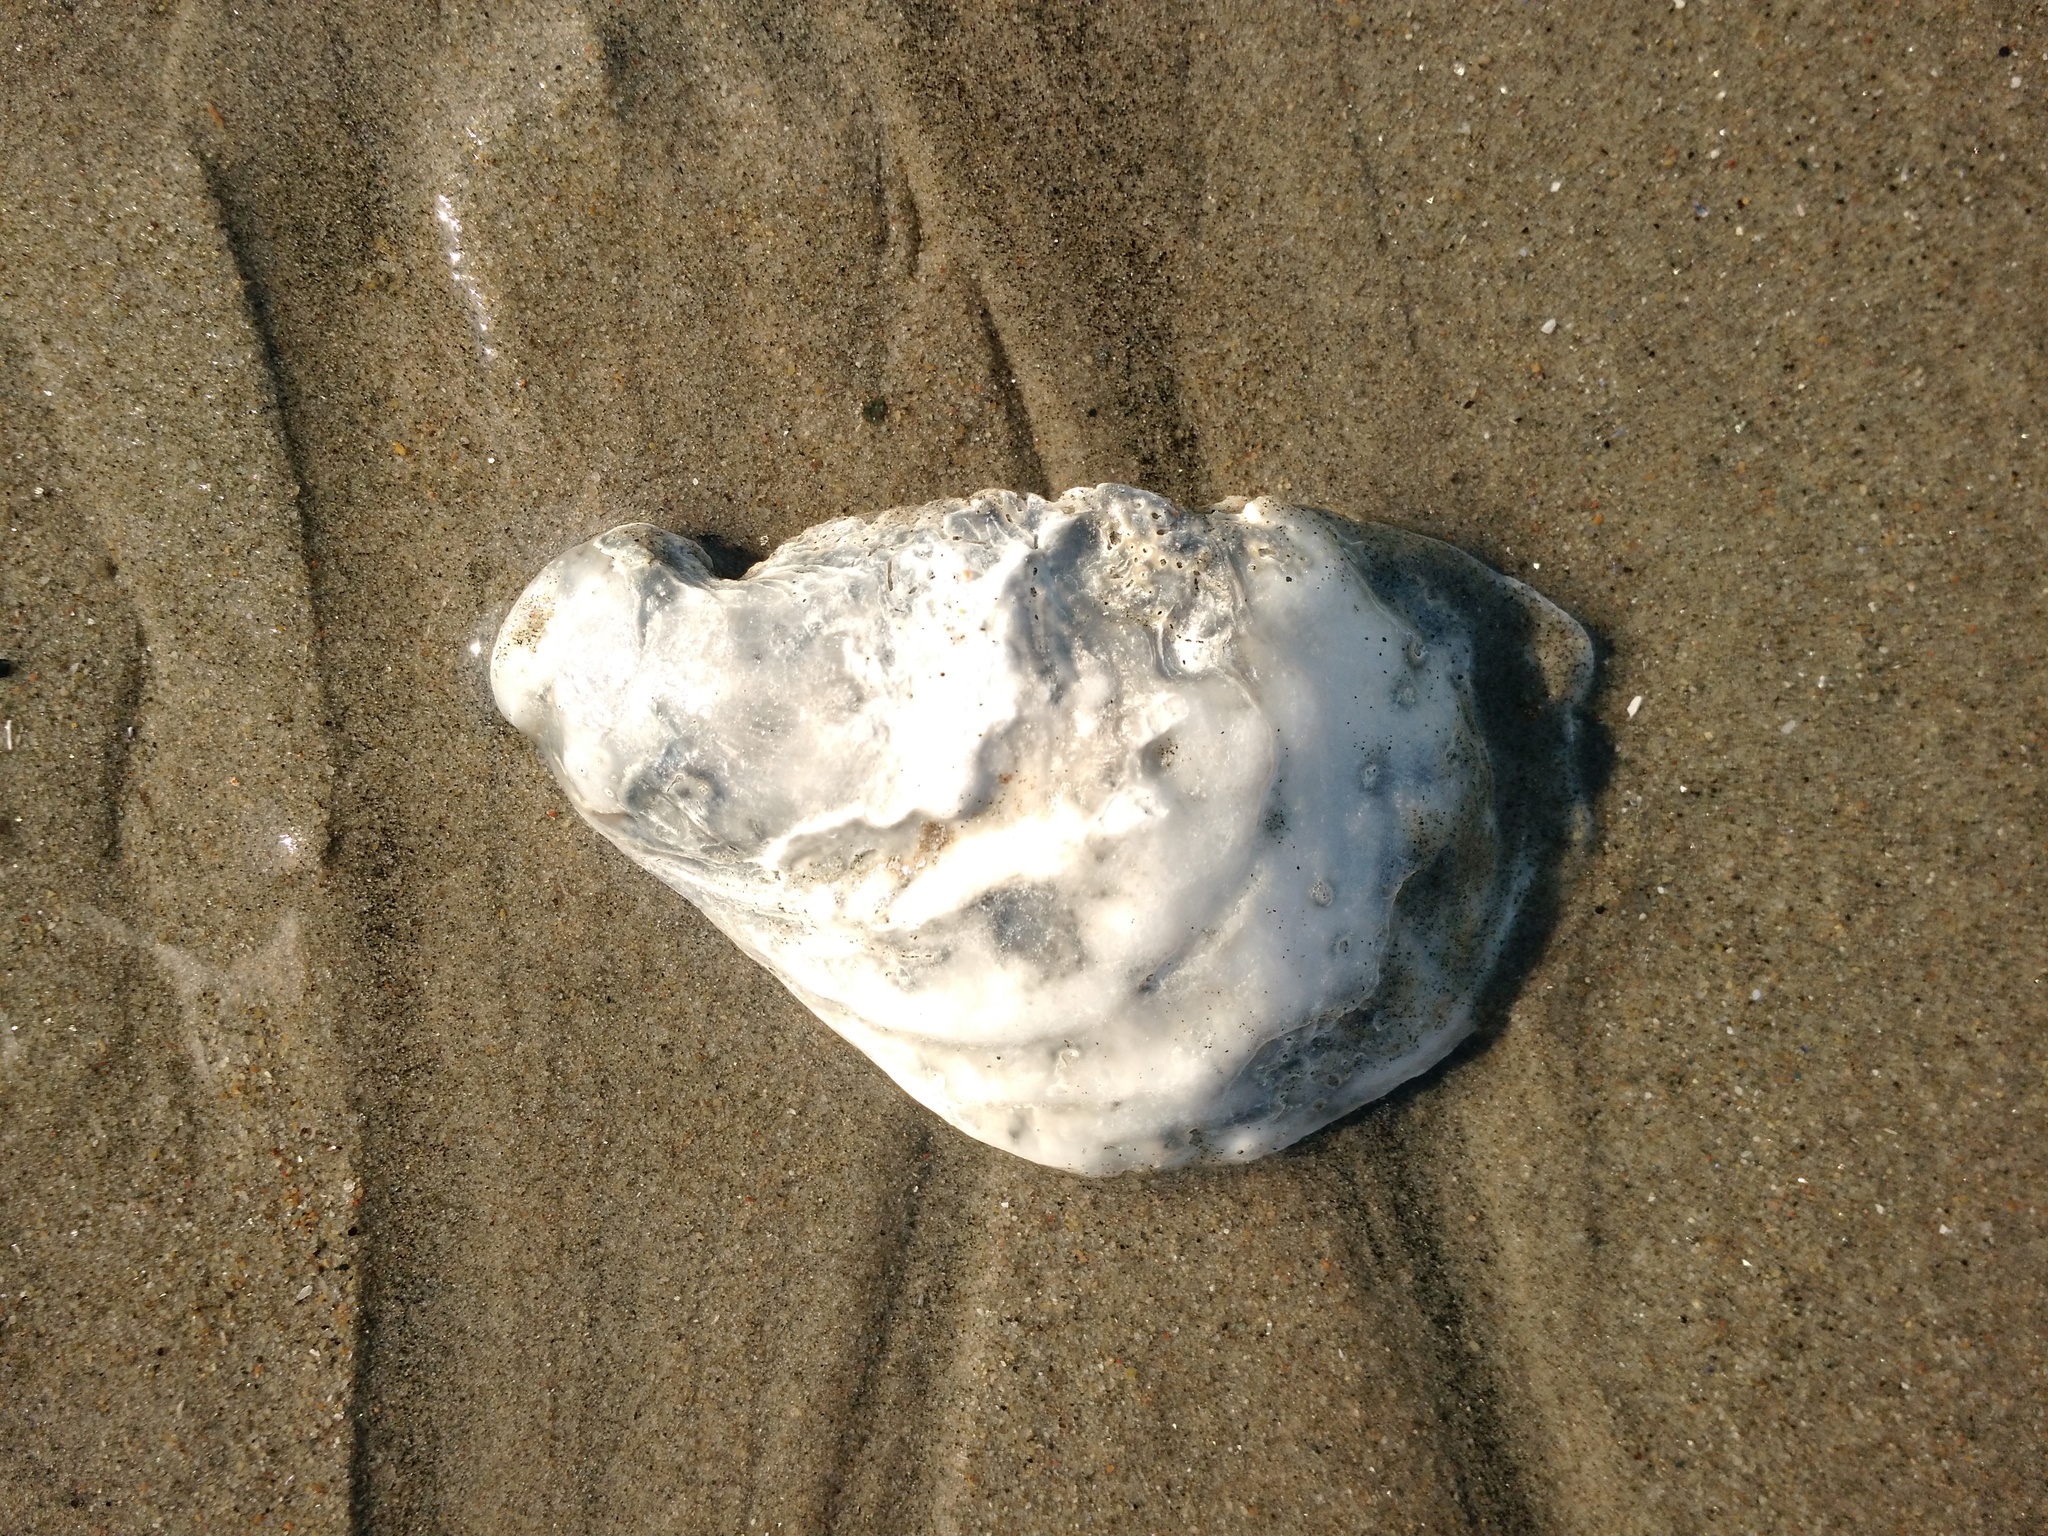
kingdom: Animalia
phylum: Mollusca
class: Bivalvia
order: Ostreida
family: Ostreidae
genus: Crassostrea
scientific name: Crassostrea virginica
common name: American oyster
